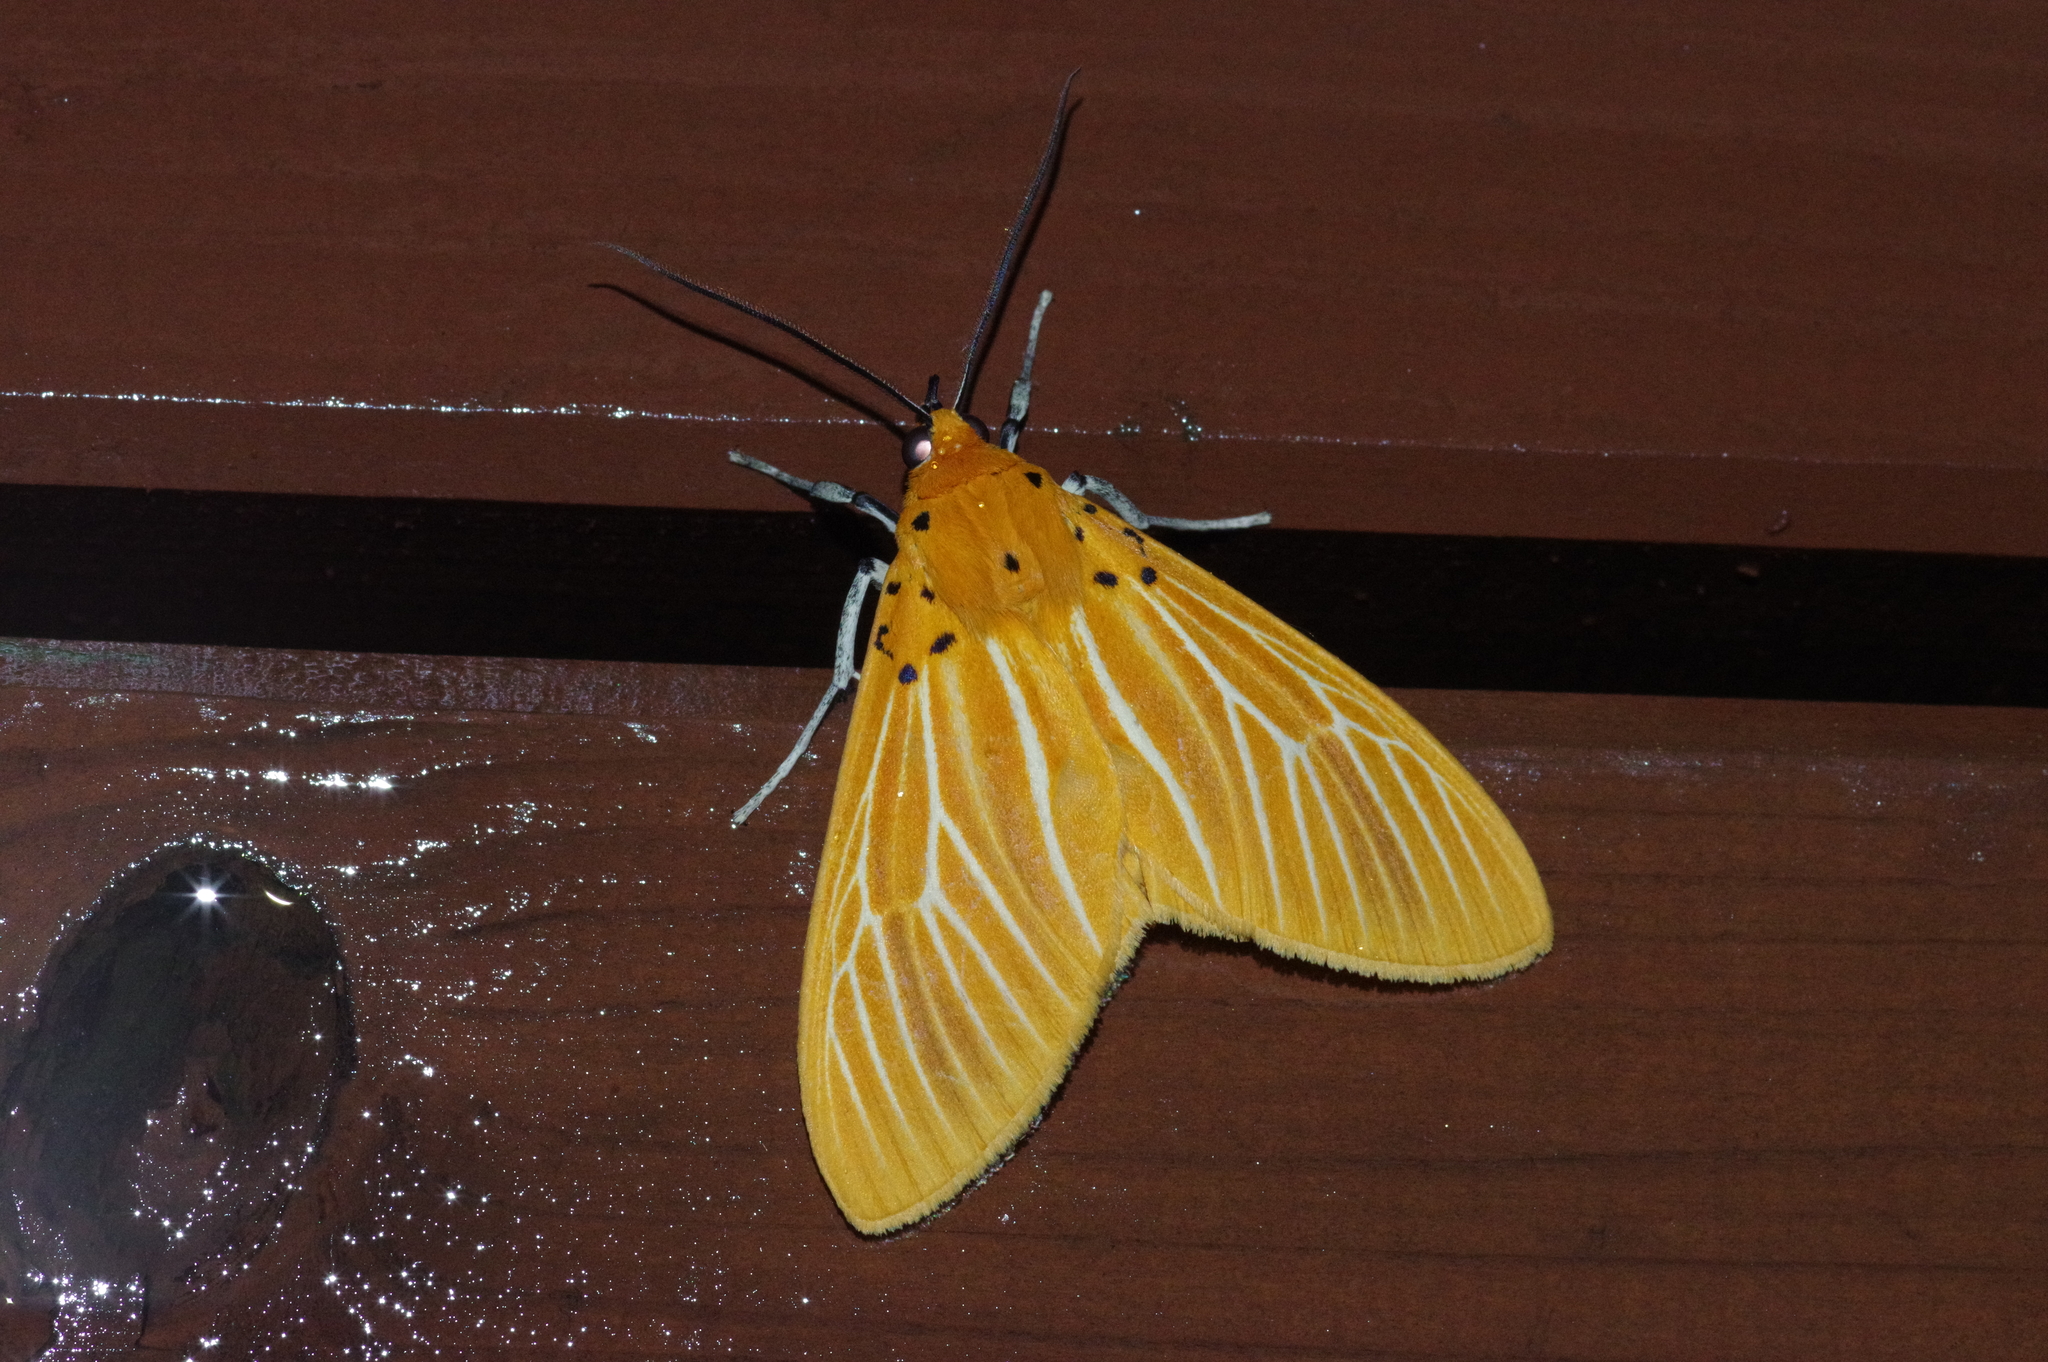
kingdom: Animalia
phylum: Arthropoda
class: Insecta
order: Lepidoptera
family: Erebidae
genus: Asota
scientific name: Asota egens
